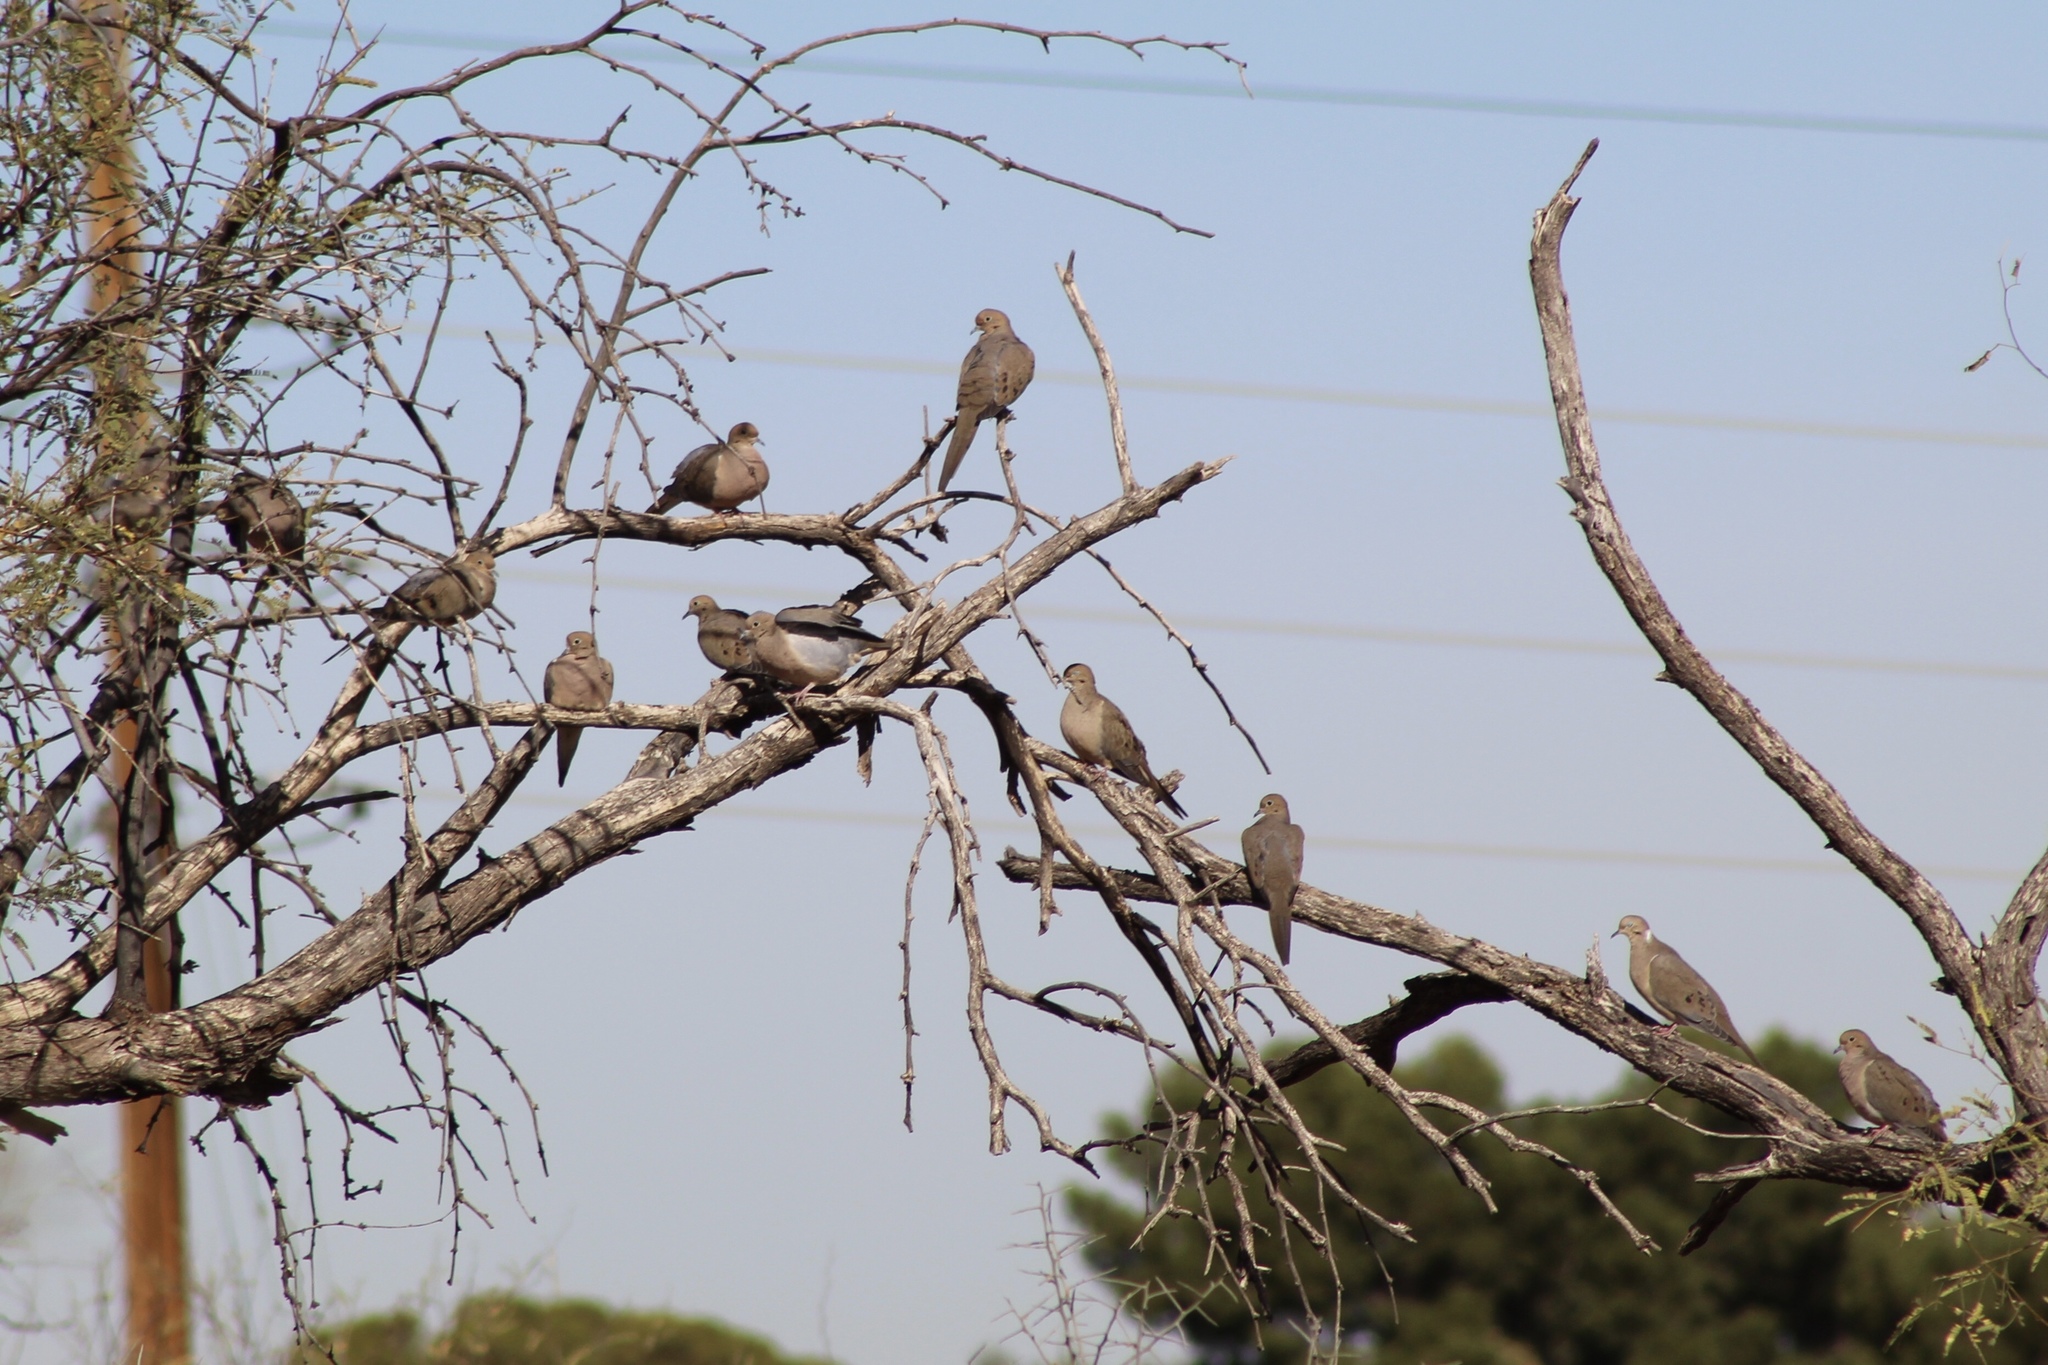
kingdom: Animalia
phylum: Chordata
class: Aves
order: Columbiformes
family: Columbidae
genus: Zenaida
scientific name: Zenaida macroura
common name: Mourning dove
